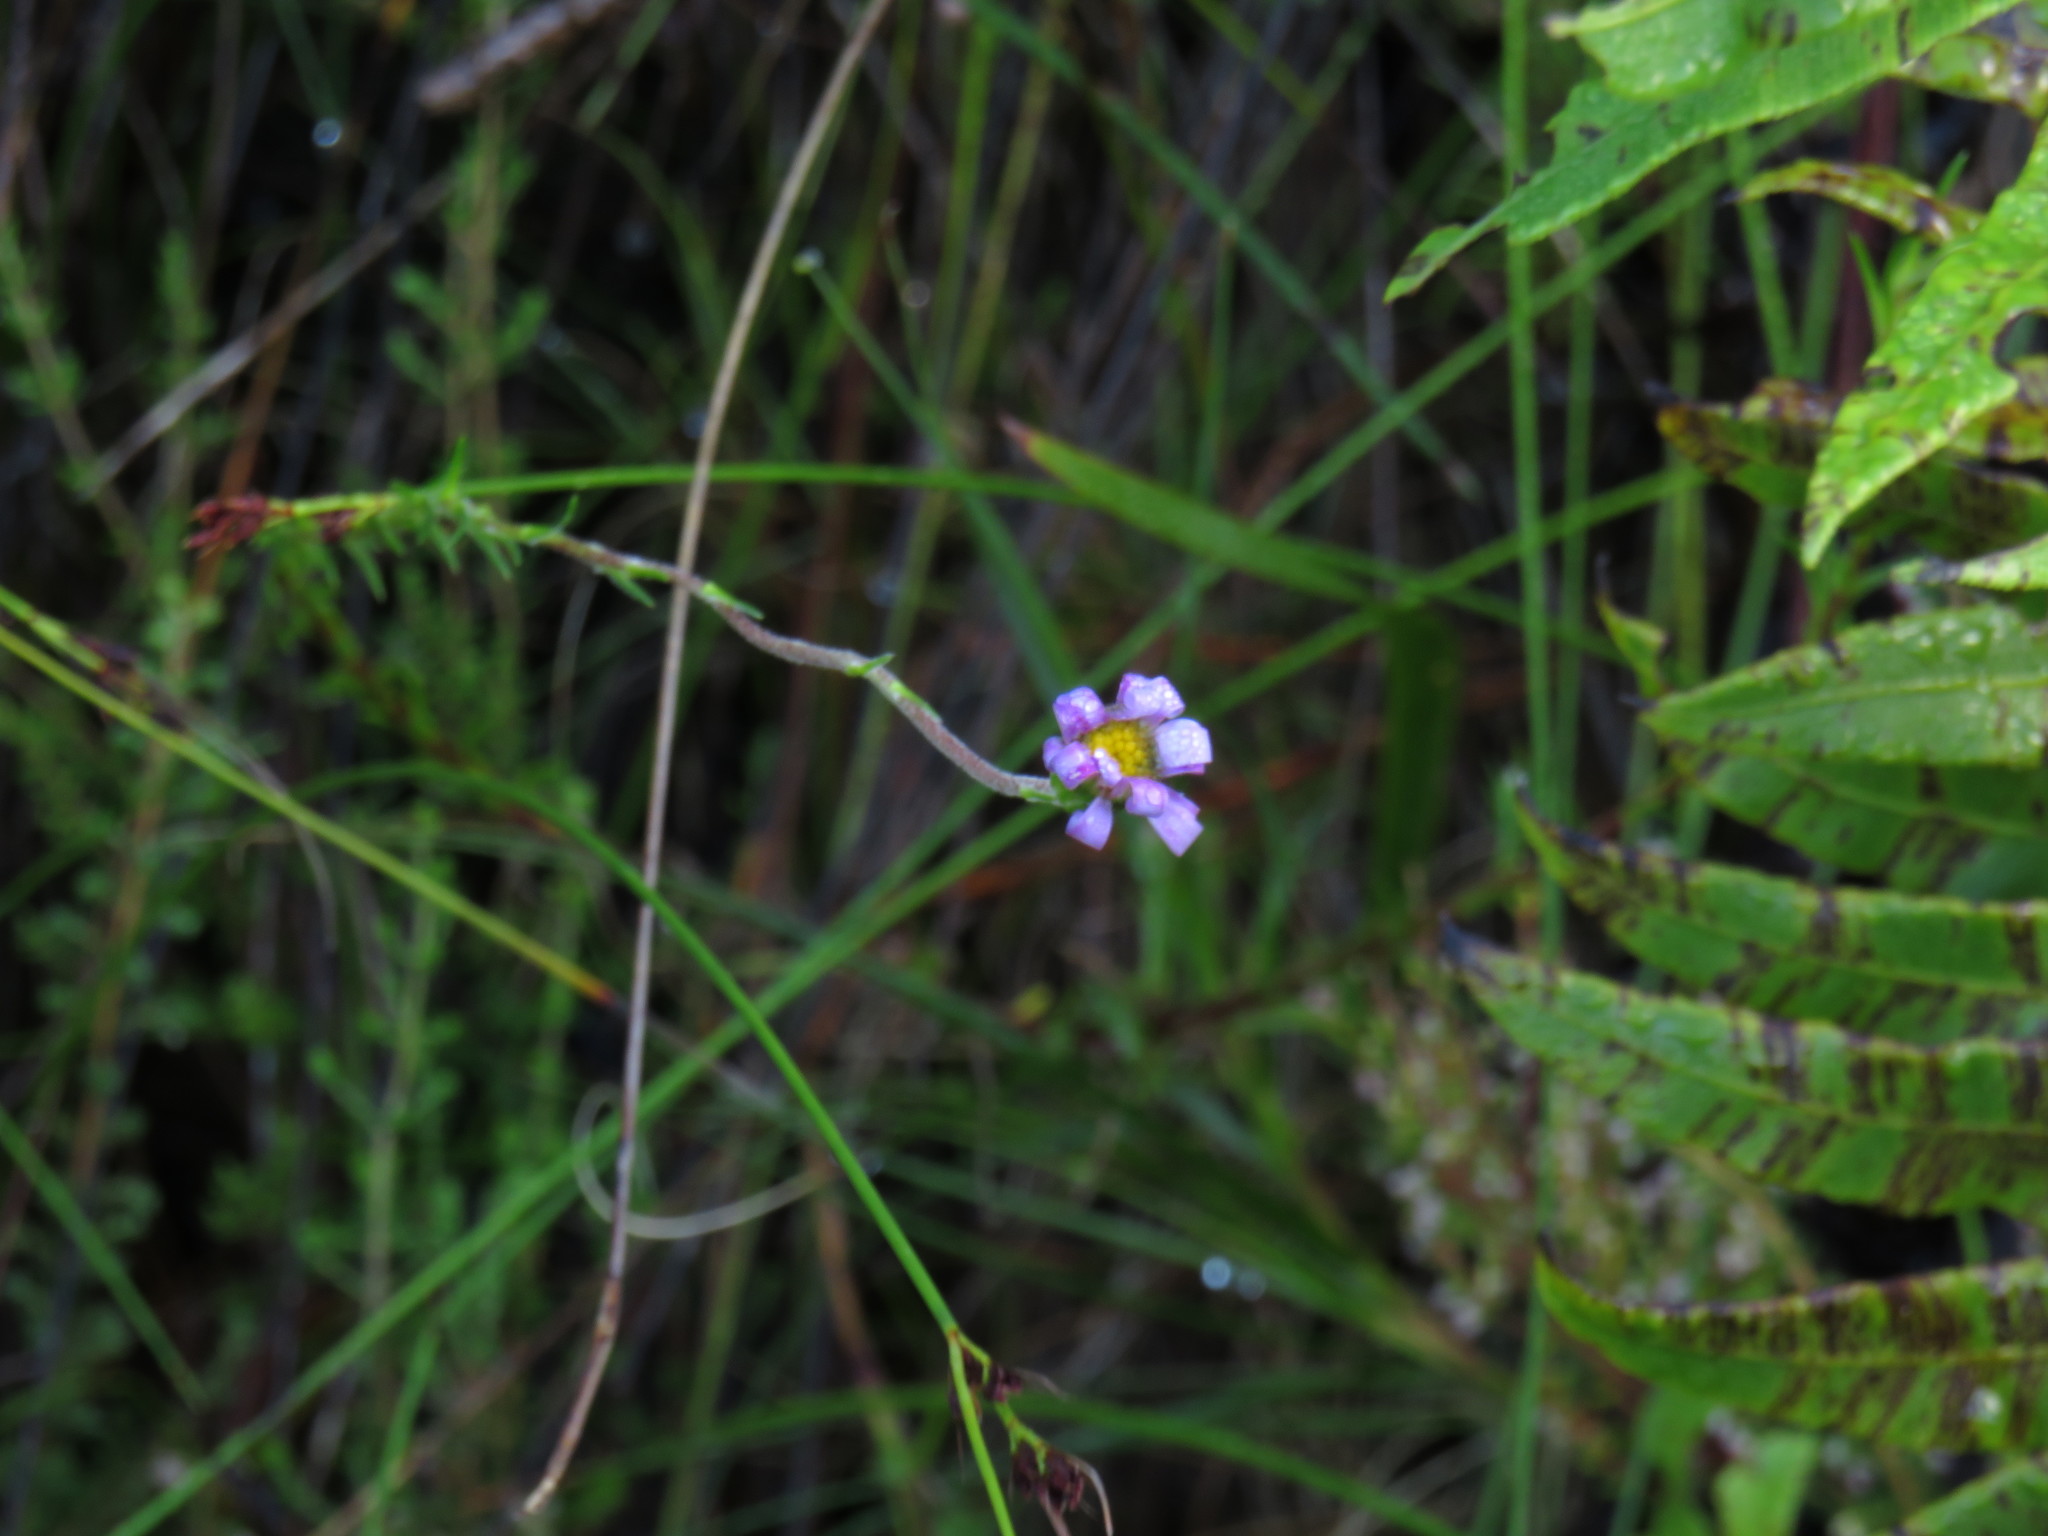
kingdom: Plantae
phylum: Tracheophyta
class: Magnoliopsida
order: Asterales
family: Asteraceae
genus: Zyrphelis
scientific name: Zyrphelis taxifolia
